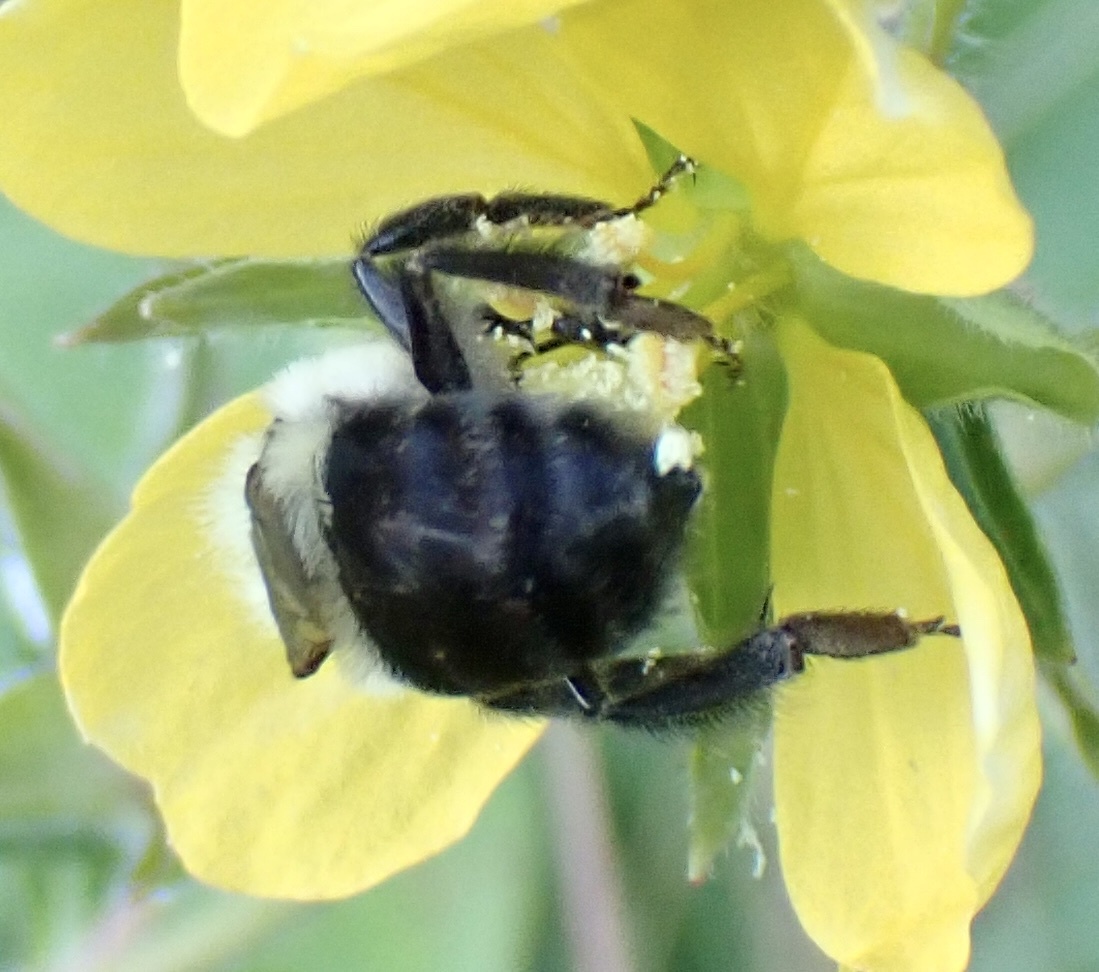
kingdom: Animalia
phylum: Arthropoda
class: Insecta
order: Hymenoptera
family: Apidae
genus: Bombus
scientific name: Bombus impatiens
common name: Common eastern bumble bee
